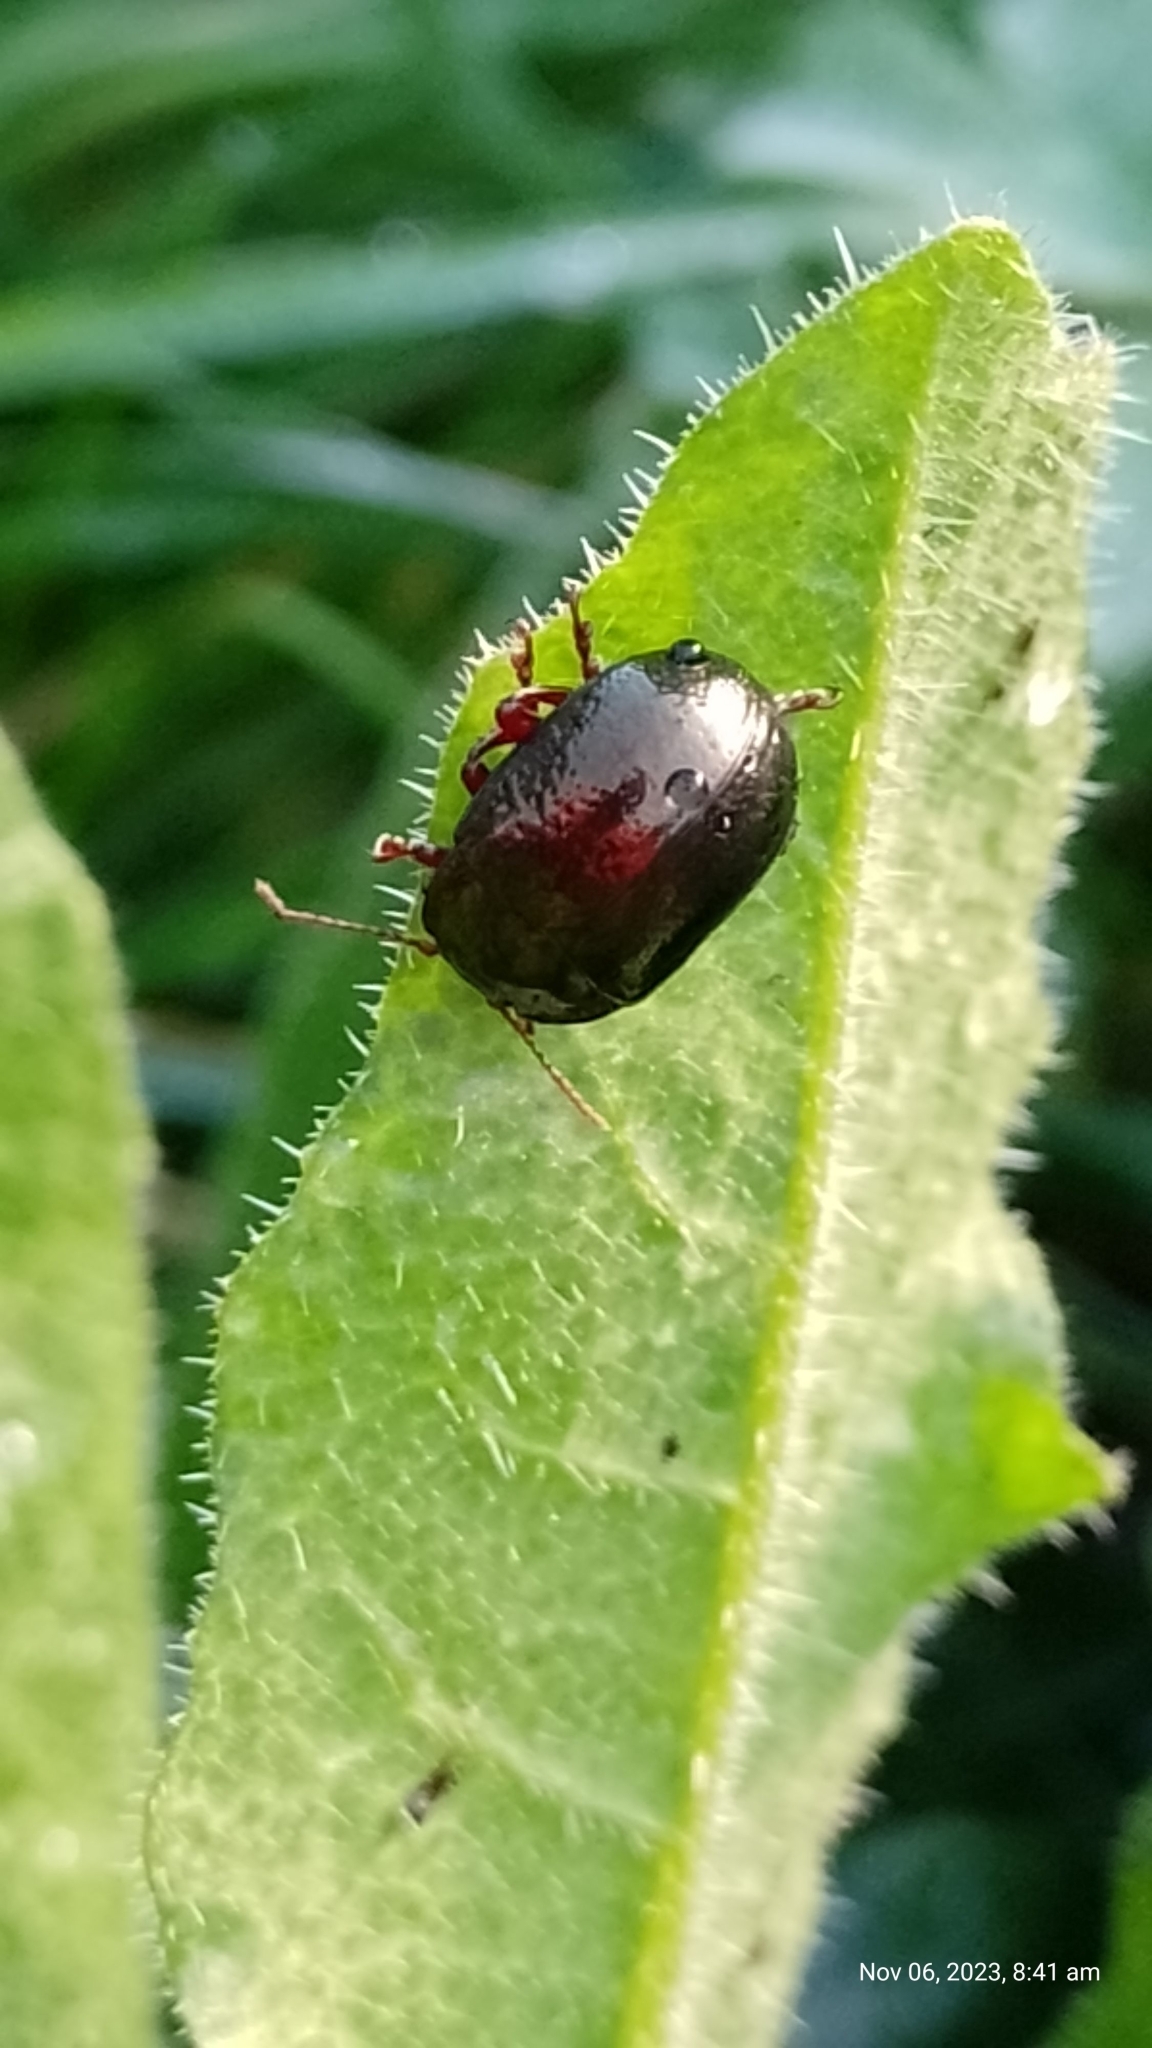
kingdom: Animalia
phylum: Arthropoda
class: Insecta
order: Coleoptera
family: Chrysomelidae
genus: Chrysolina
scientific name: Chrysolina bankii
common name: Leaf beetle
